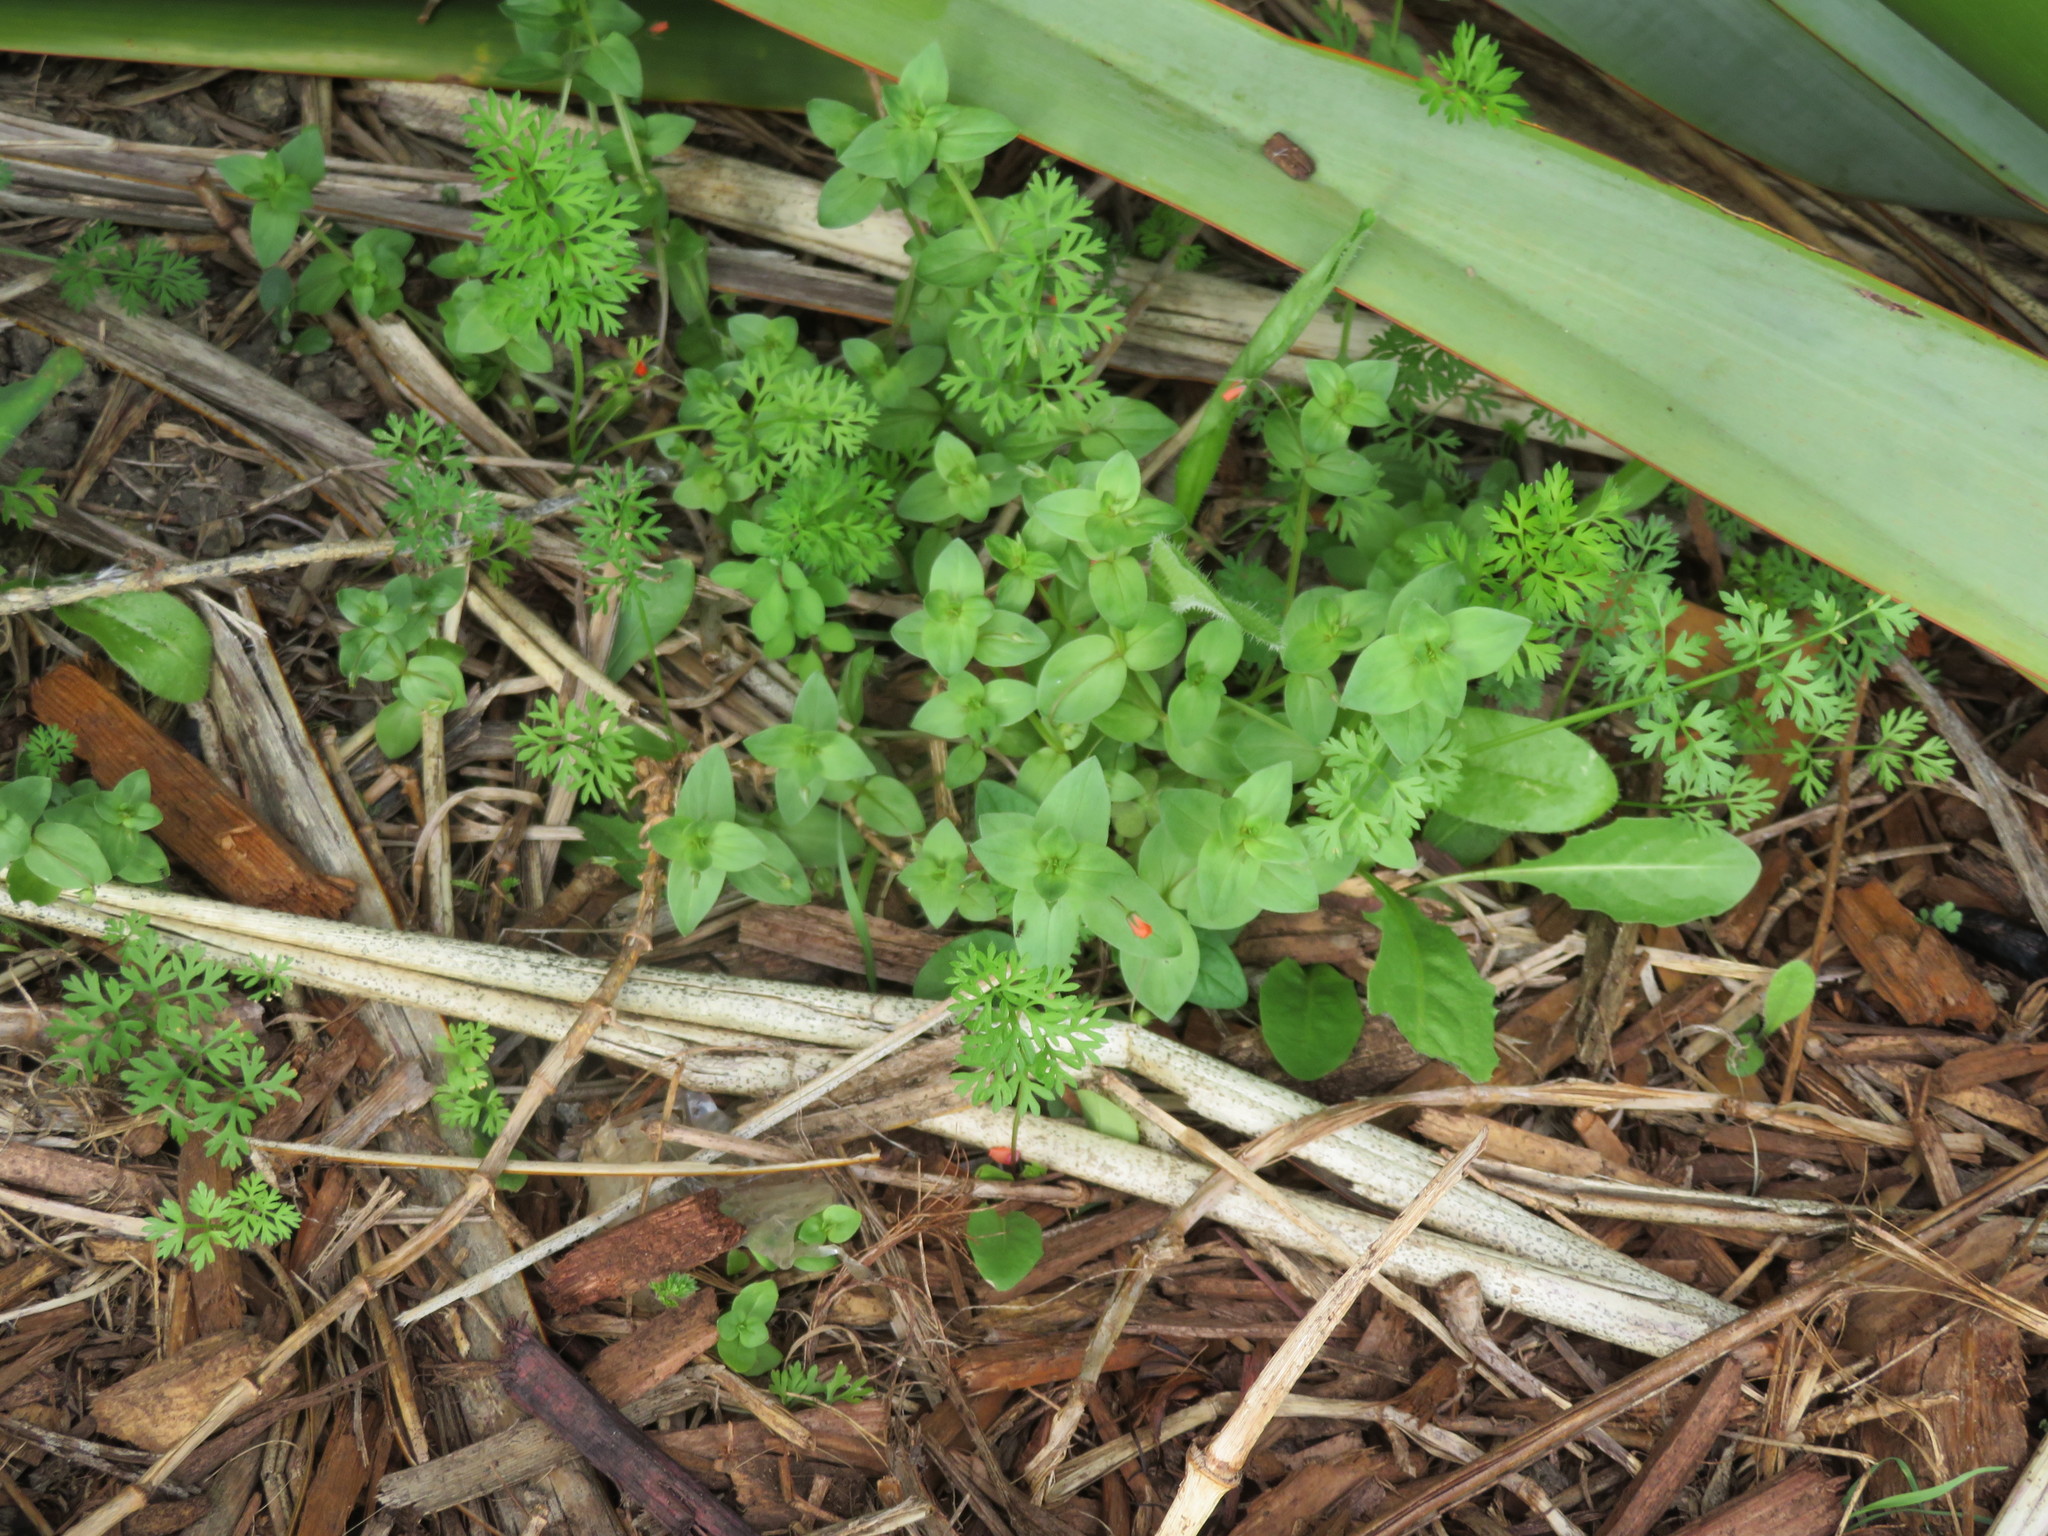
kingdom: Plantae
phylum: Tracheophyta
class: Magnoliopsida
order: Ericales
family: Primulaceae
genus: Lysimachia
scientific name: Lysimachia arvensis
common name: Scarlet pimpernel
